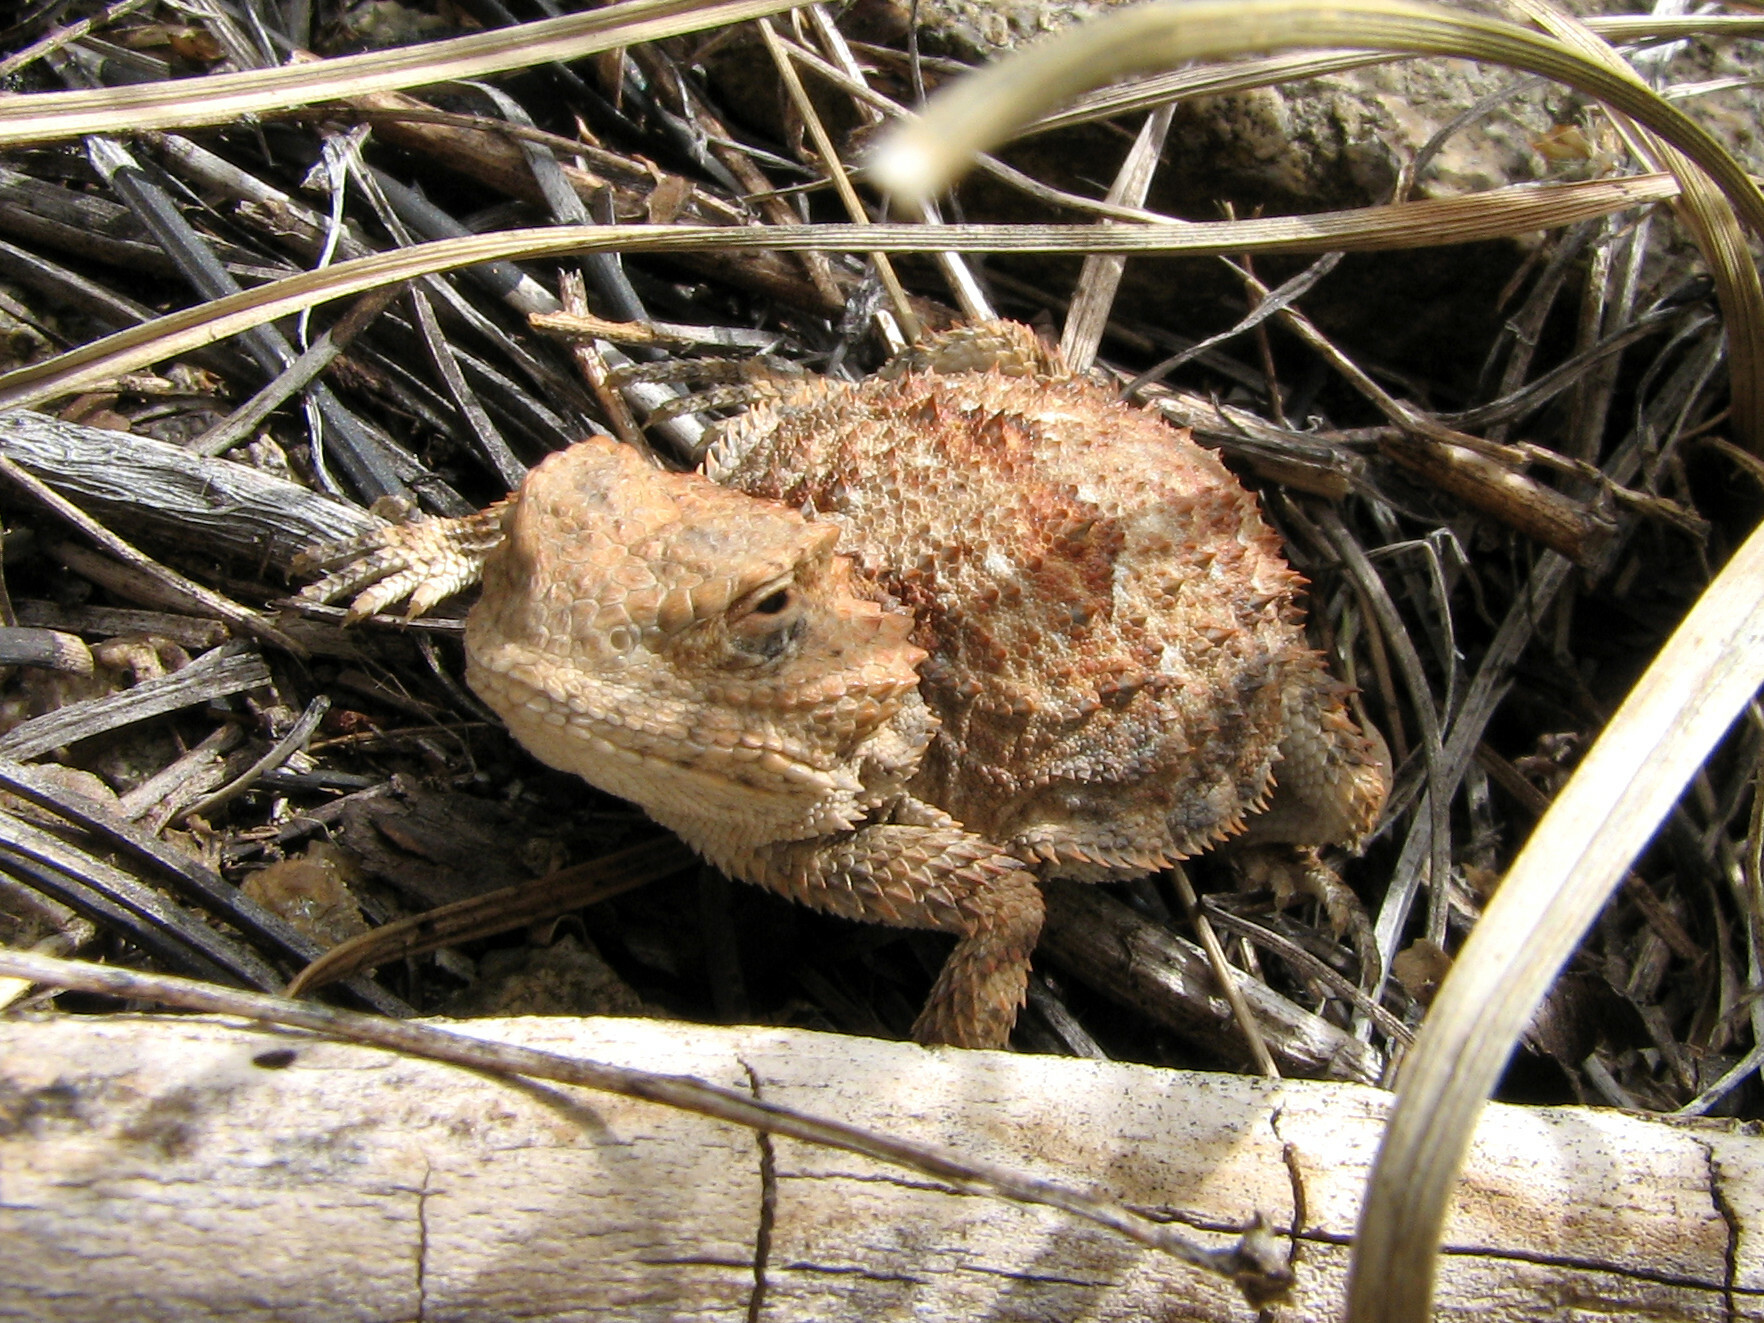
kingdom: Animalia
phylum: Chordata
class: Squamata
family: Phrynosomatidae
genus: Phrynosoma
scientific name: Phrynosoma hernandesi
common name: Greater short-horned lizard
